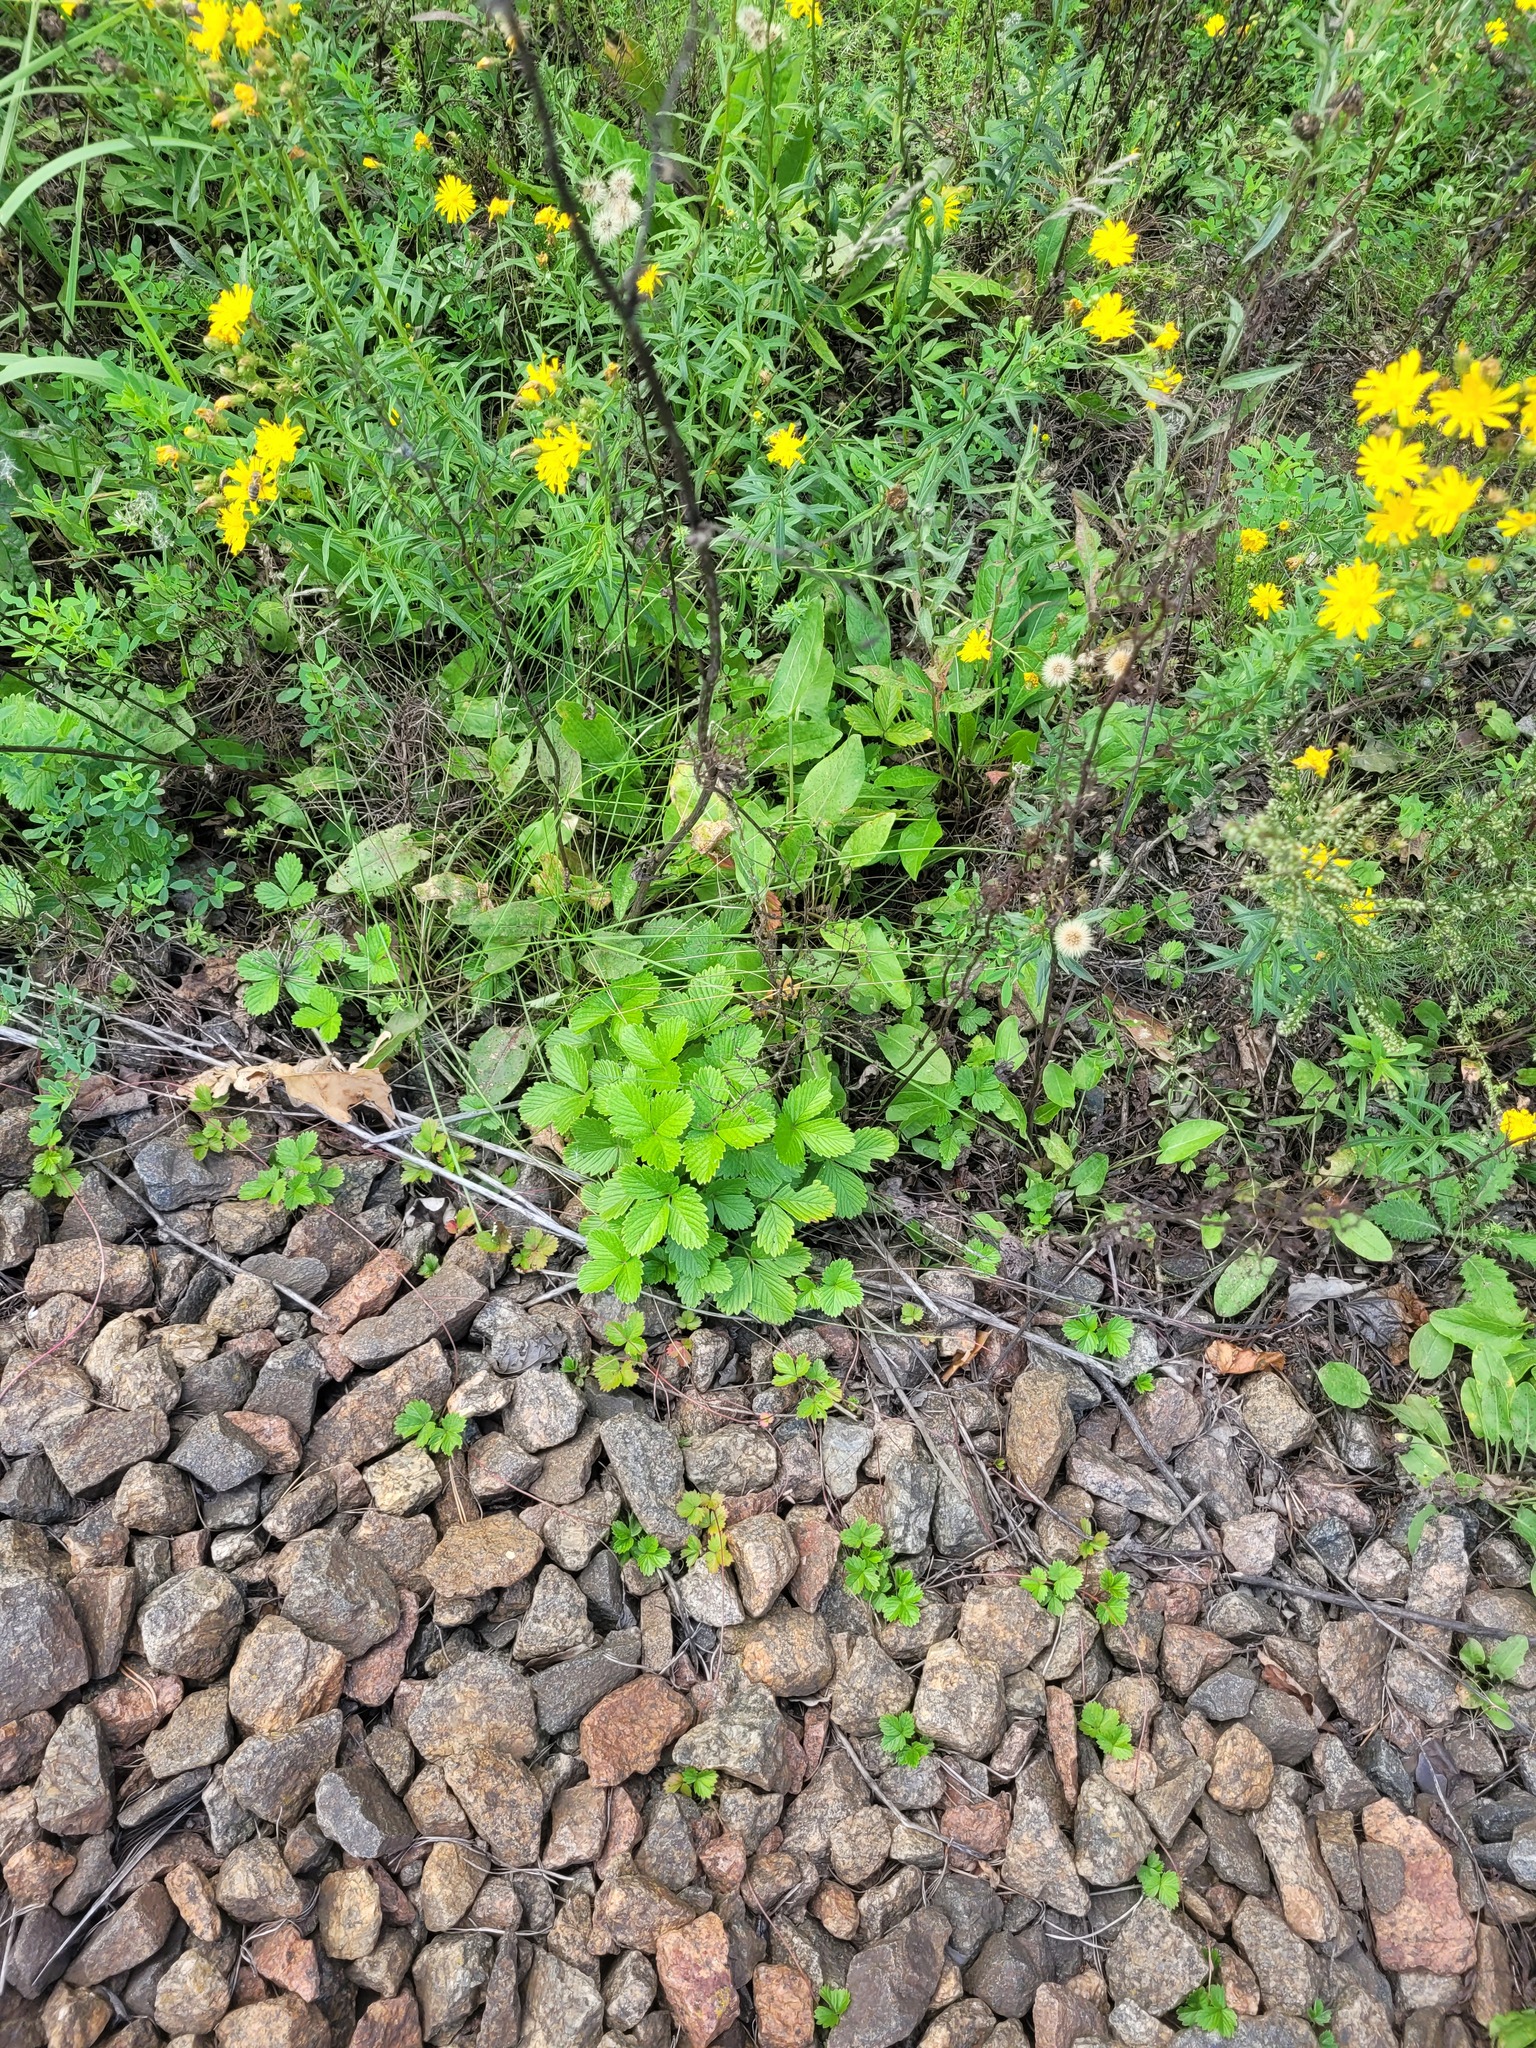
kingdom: Plantae
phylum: Tracheophyta
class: Magnoliopsida
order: Rosales
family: Rosaceae
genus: Fragaria
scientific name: Fragaria viridis
